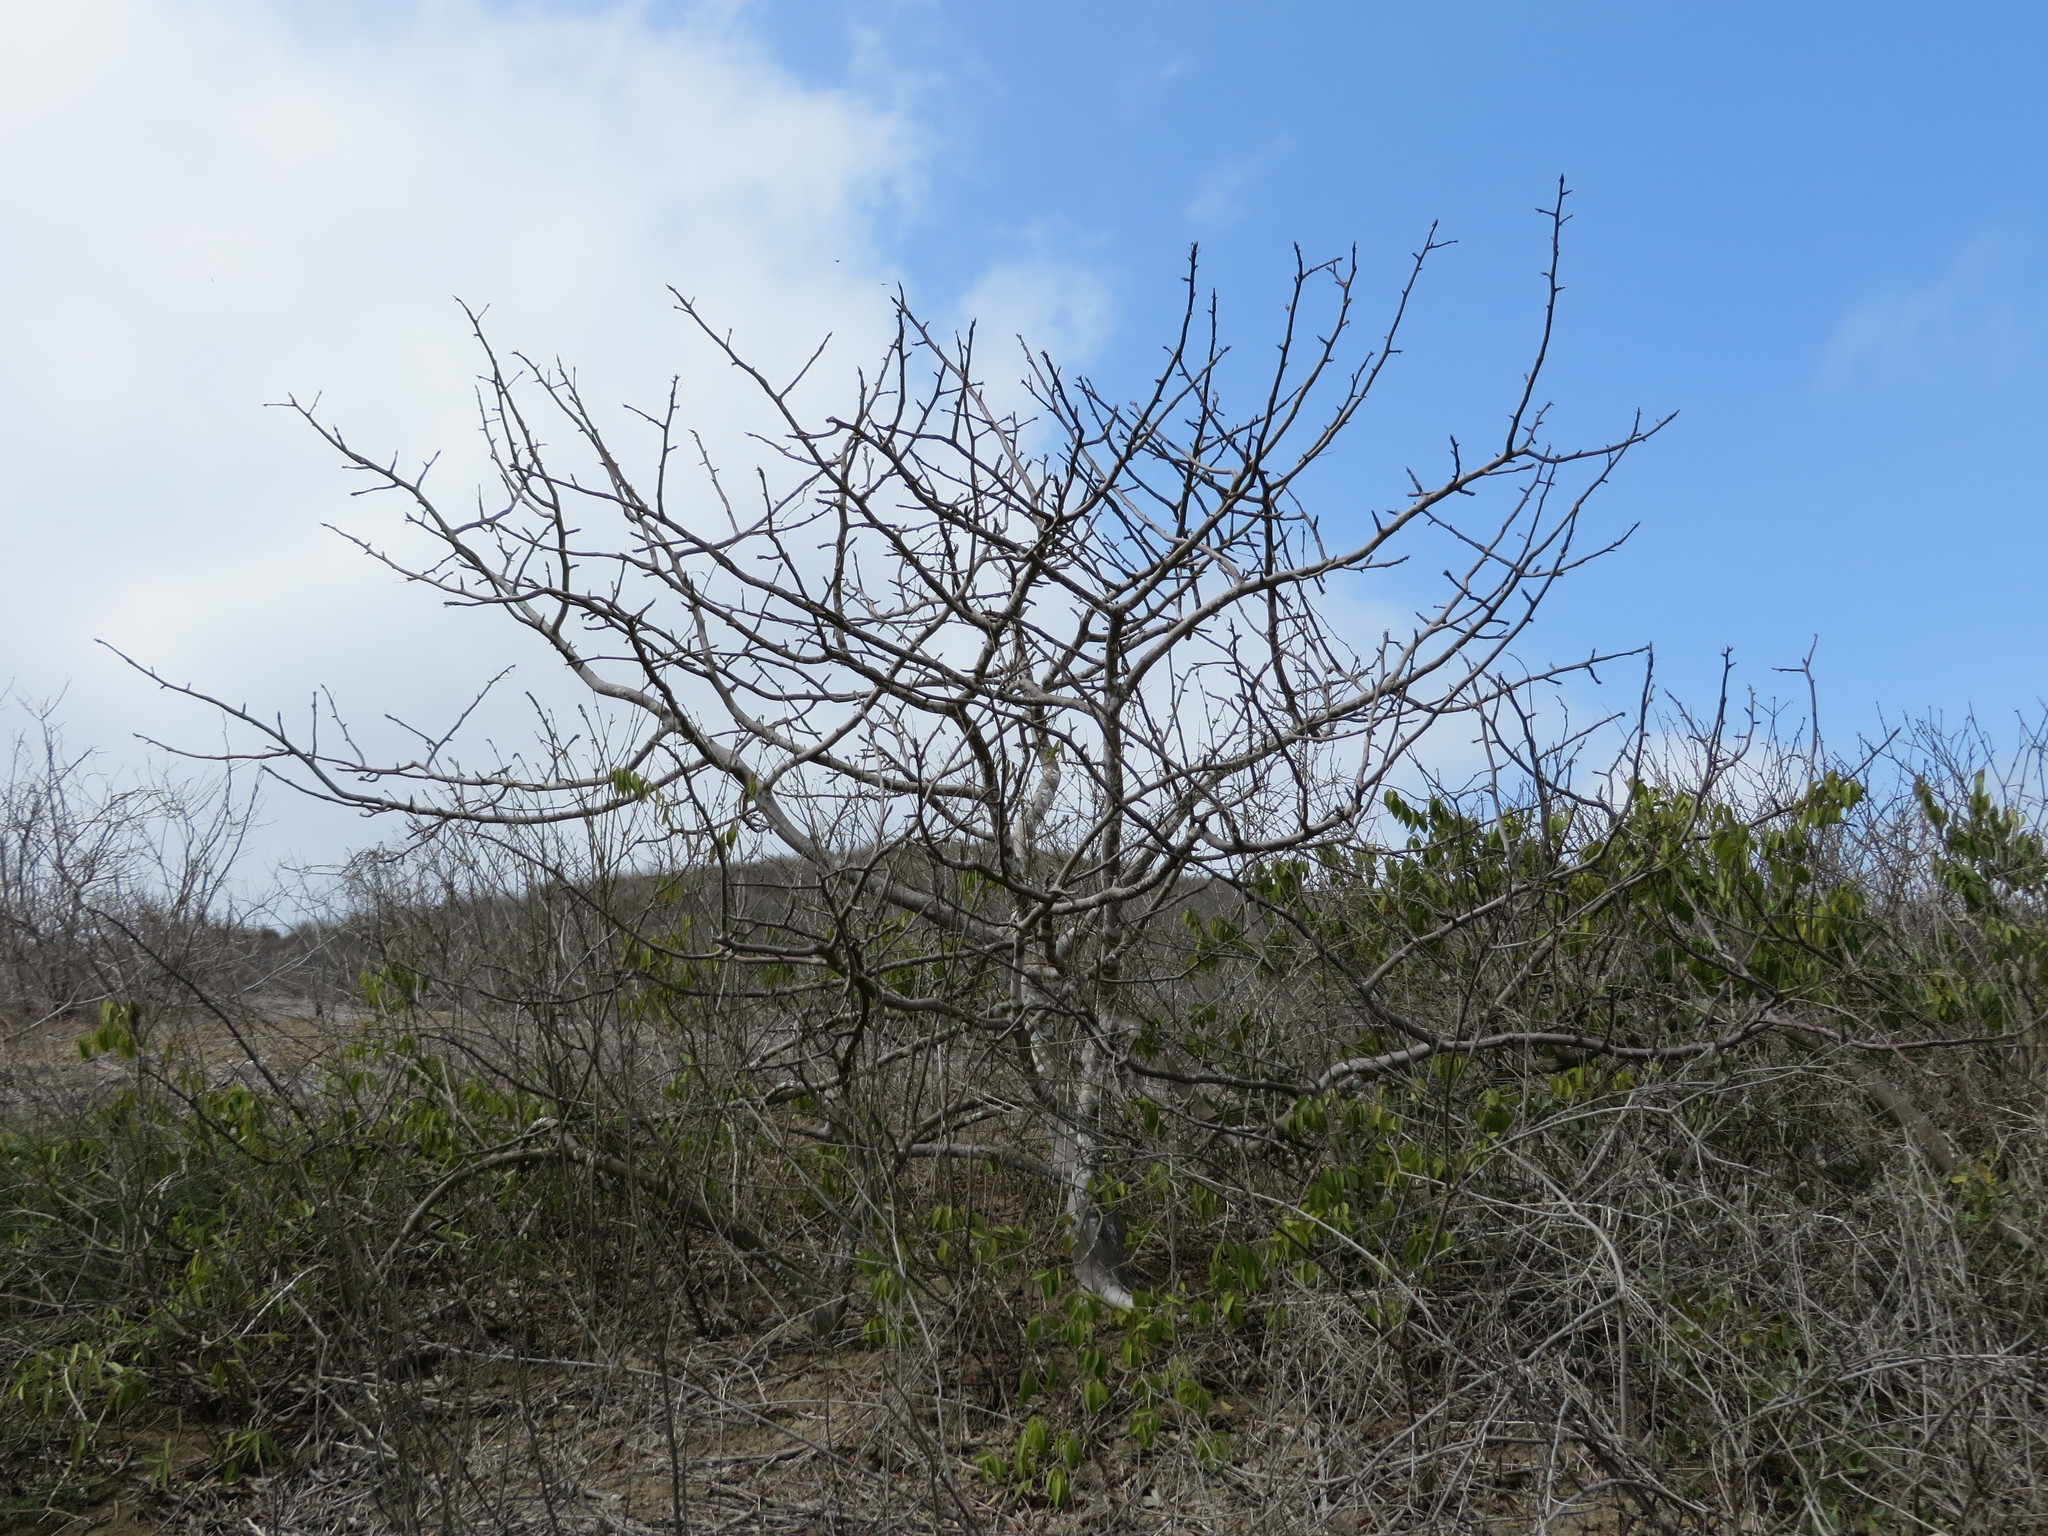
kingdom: Plantae
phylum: Tracheophyta
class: Magnoliopsida
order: Sapindales
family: Burseraceae
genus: Bursera
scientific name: Bursera graveolens
